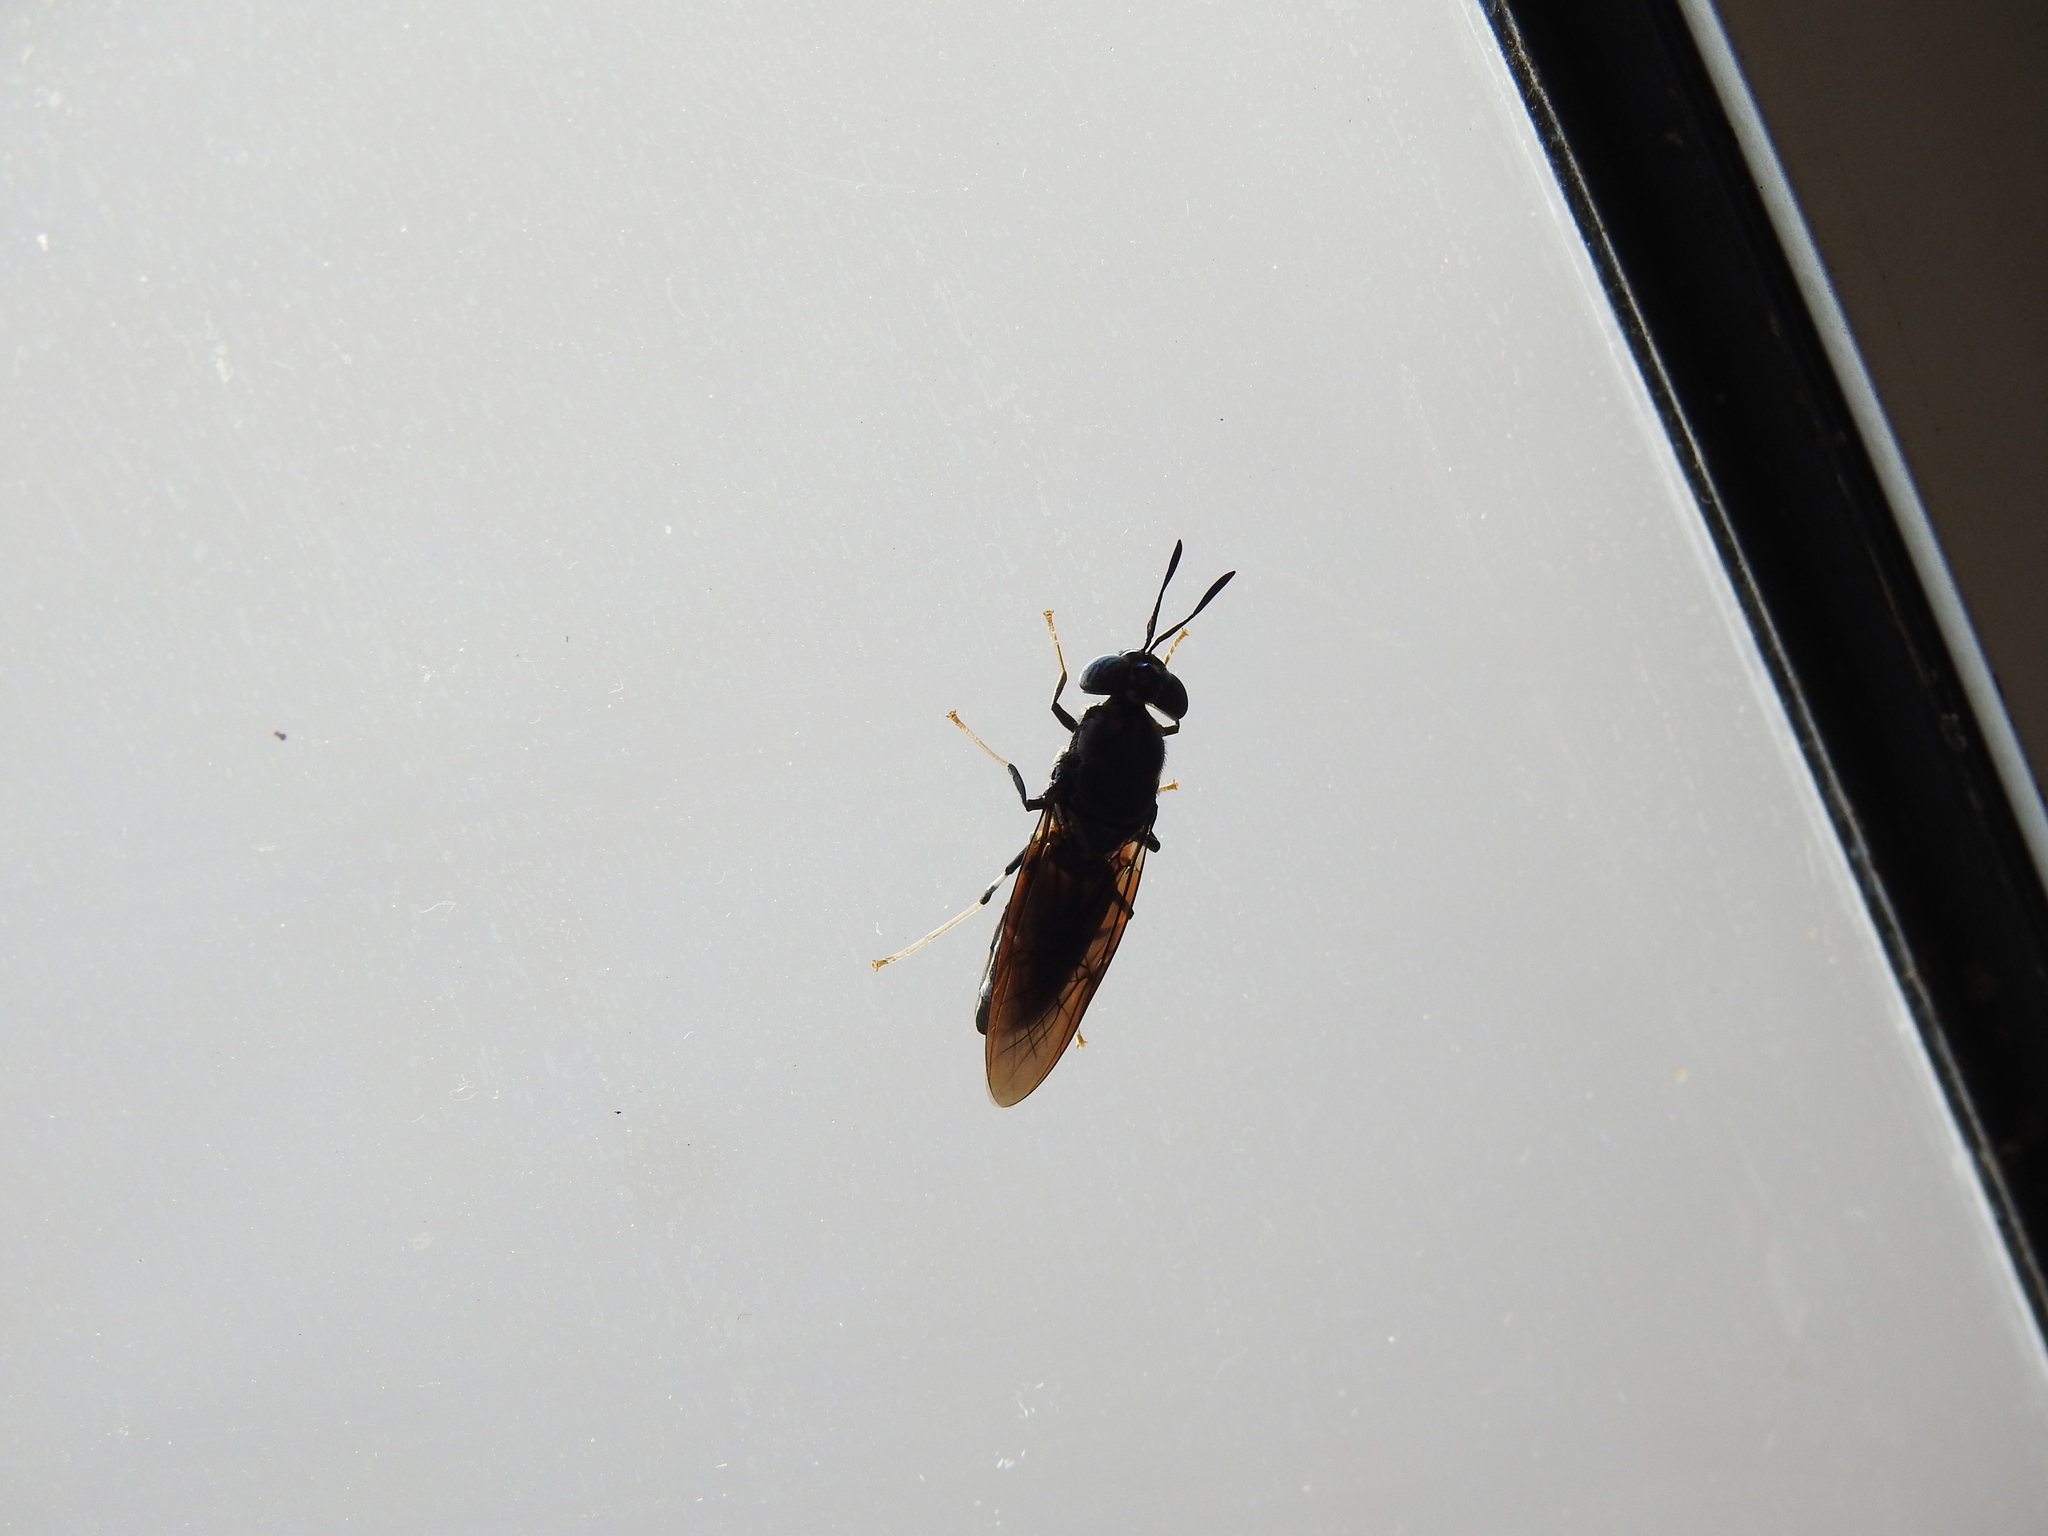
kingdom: Animalia
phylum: Arthropoda
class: Insecta
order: Diptera
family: Stratiomyidae
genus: Hermetia
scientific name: Hermetia illucens
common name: Black soldier fly
